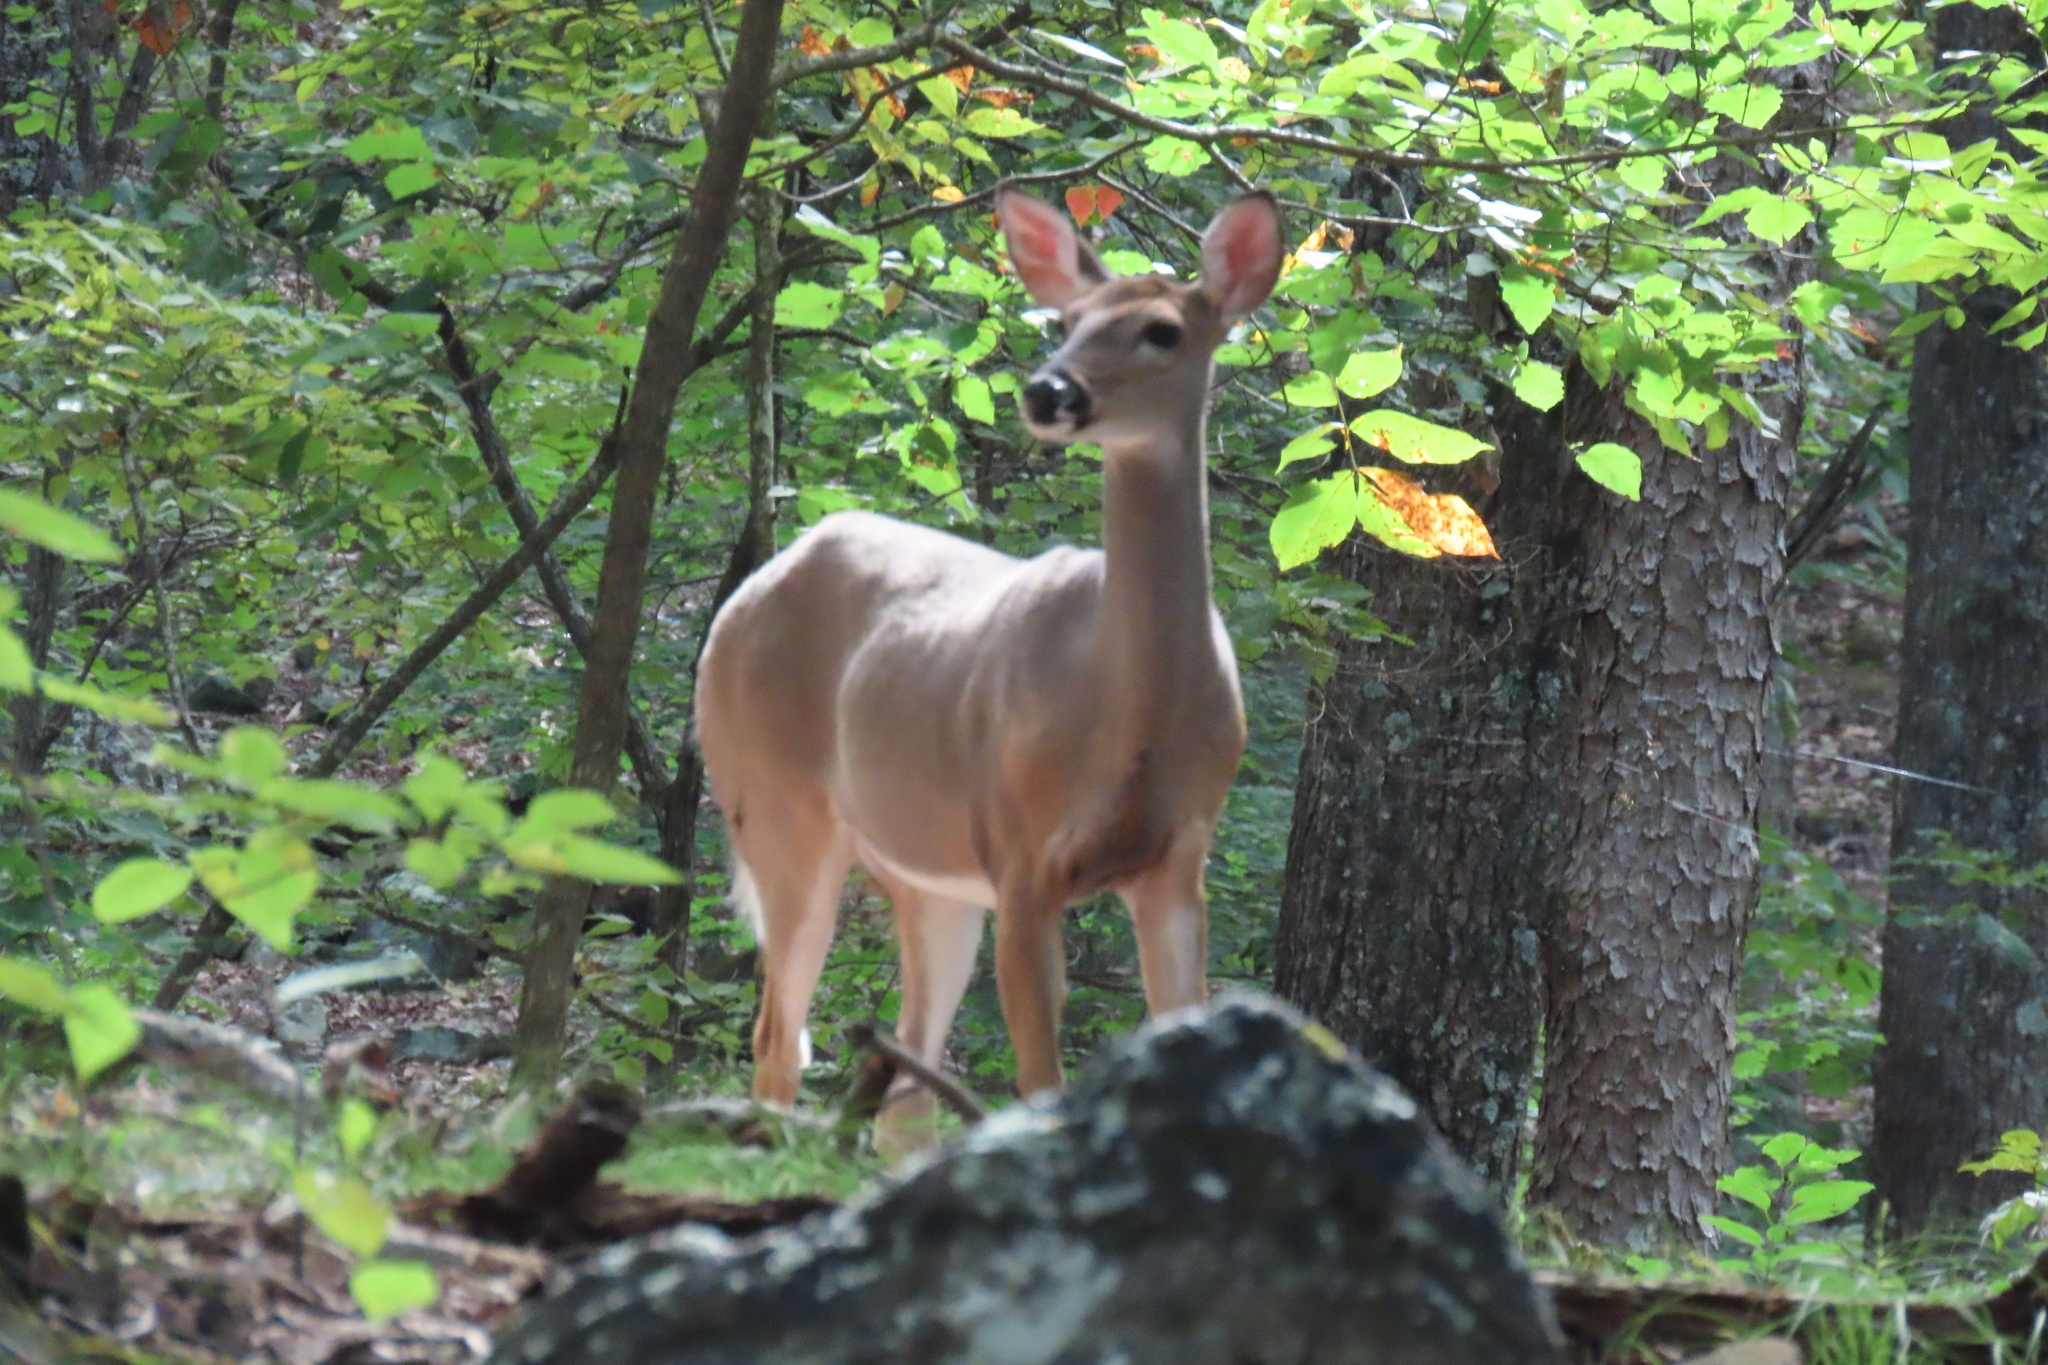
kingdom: Animalia
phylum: Chordata
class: Mammalia
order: Artiodactyla
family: Cervidae
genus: Odocoileus
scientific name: Odocoileus virginianus
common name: White-tailed deer
